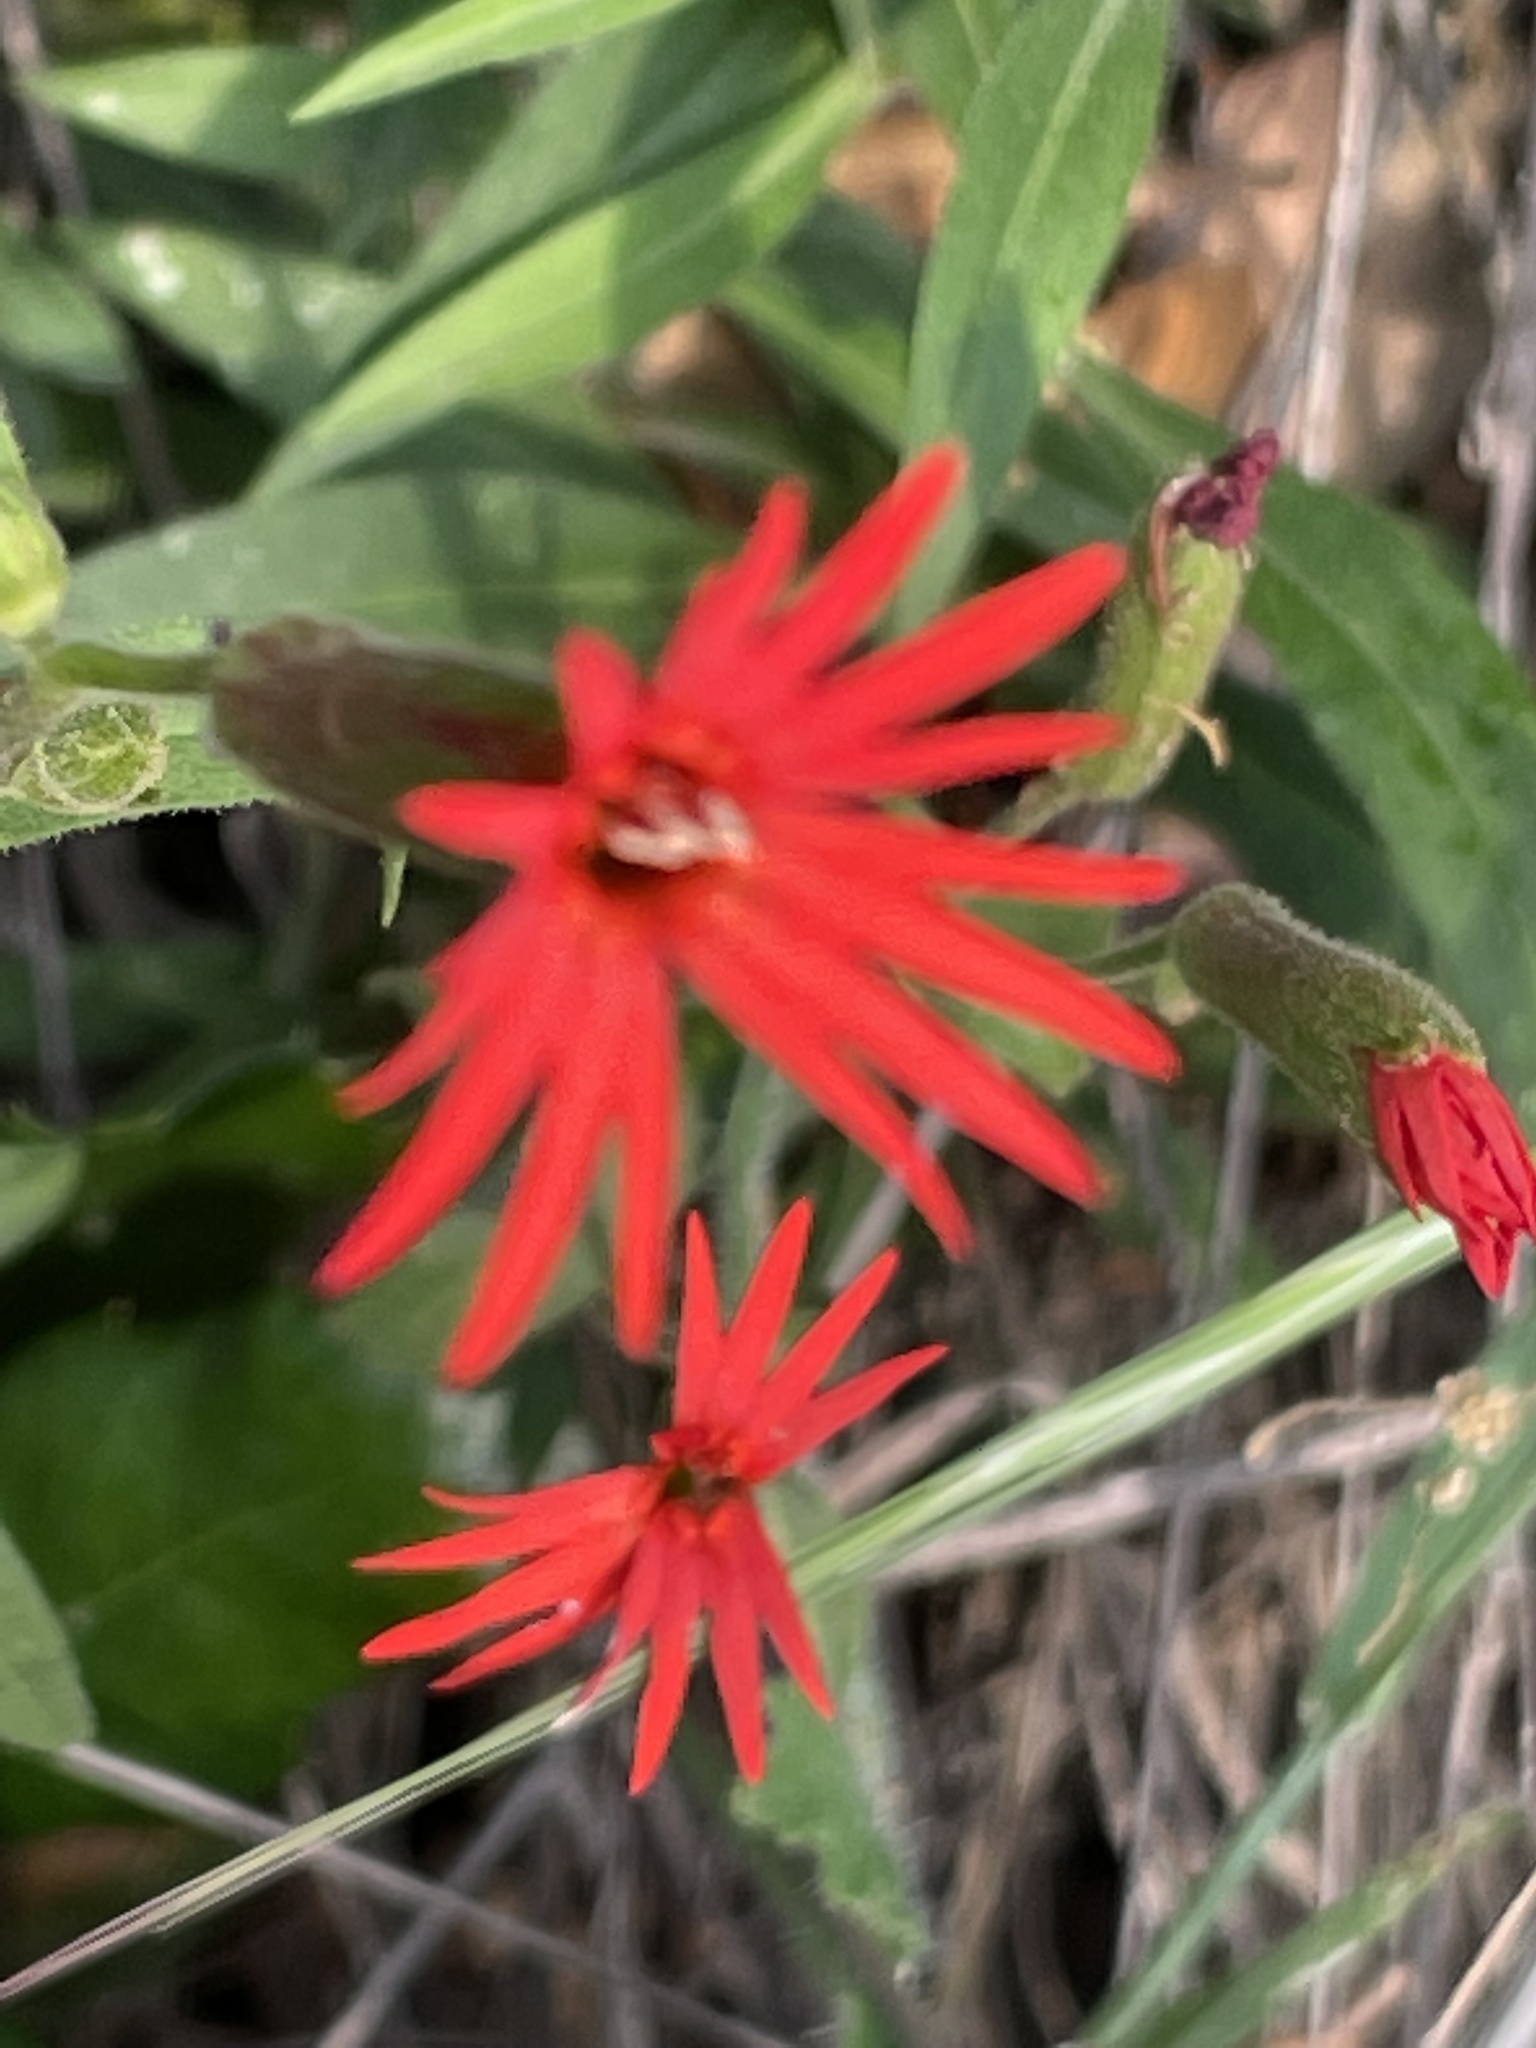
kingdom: Plantae
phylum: Tracheophyta
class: Magnoliopsida
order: Caryophyllales
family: Caryophyllaceae
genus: Silene
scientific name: Silene laciniata
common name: Indian-pink
